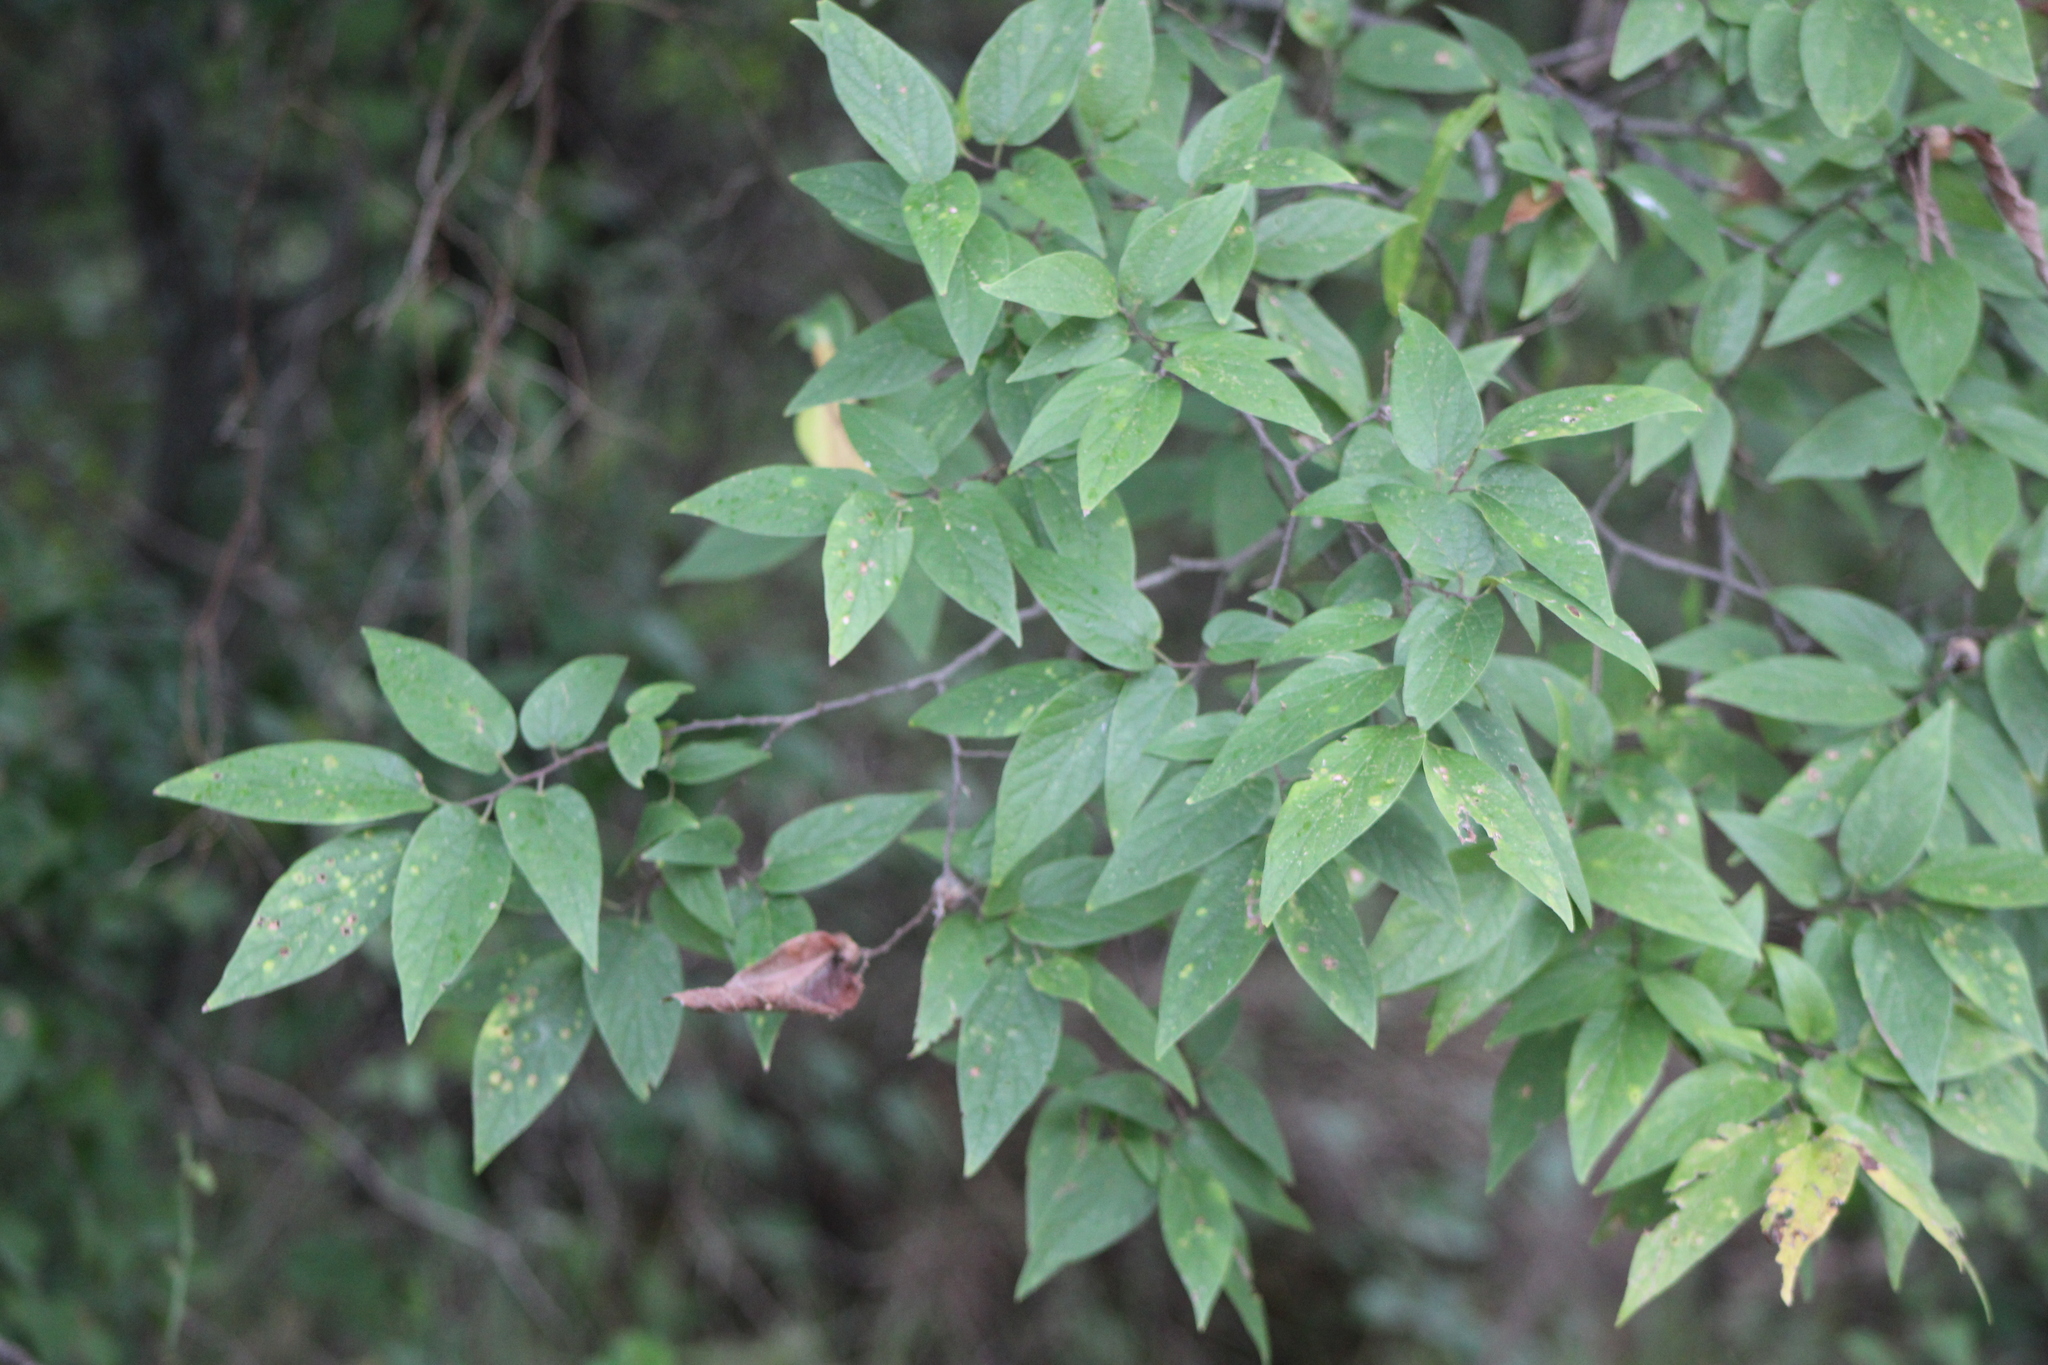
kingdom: Plantae
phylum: Tracheophyta
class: Magnoliopsida
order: Rosales
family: Cannabaceae
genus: Celtis
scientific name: Celtis laevigata
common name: Sugarberry
